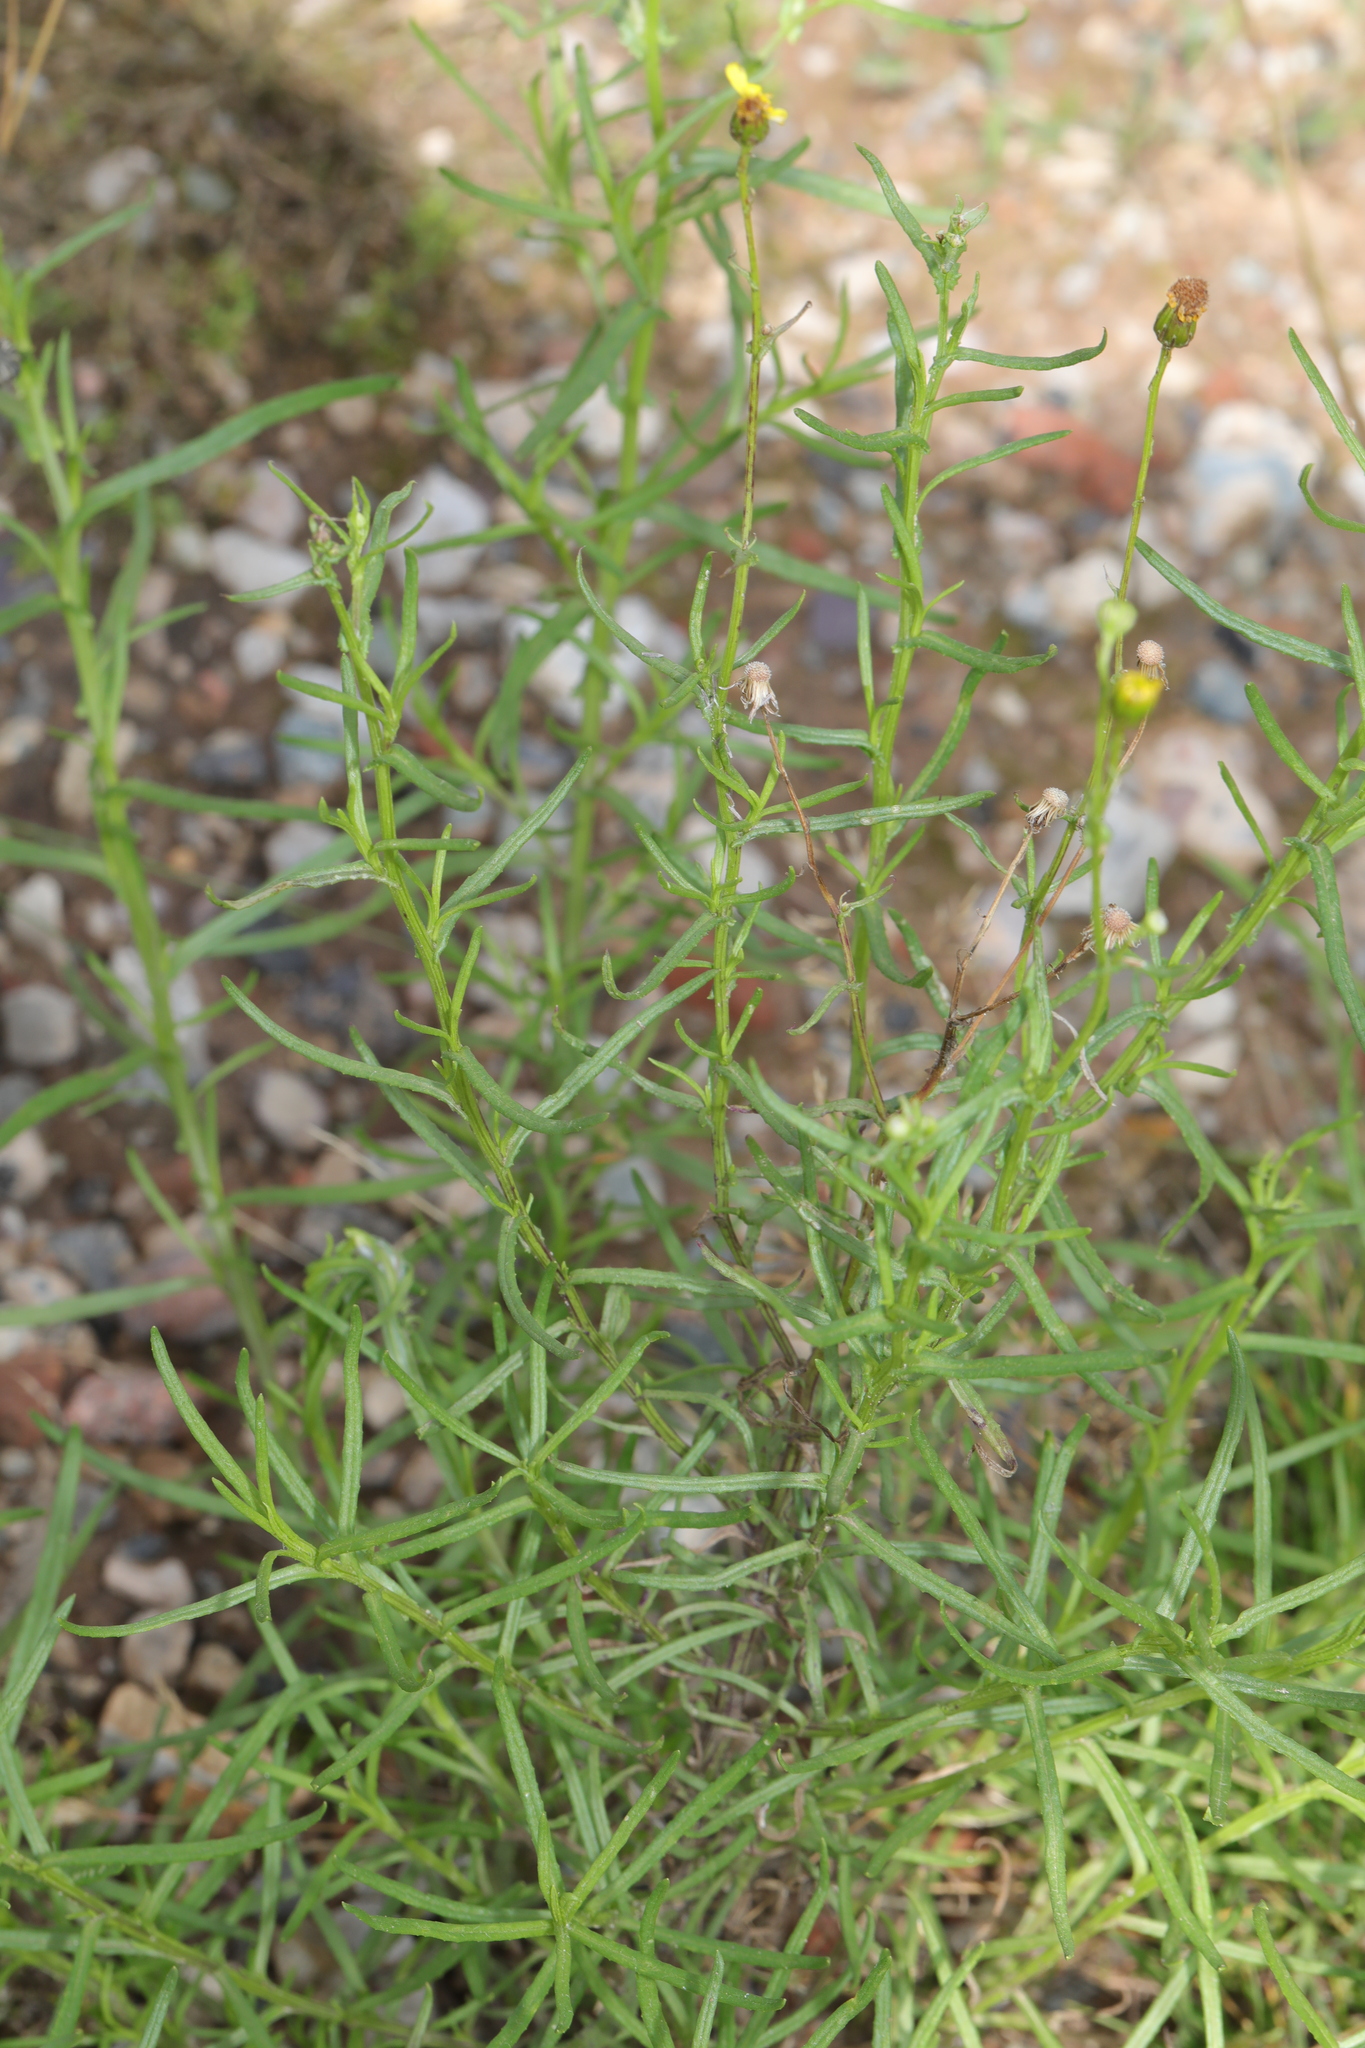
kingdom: Plantae
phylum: Tracheophyta
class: Magnoliopsida
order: Asterales
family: Asteraceae
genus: Senecio
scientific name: Senecio inaequidens
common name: Narrow-leaved ragwort
